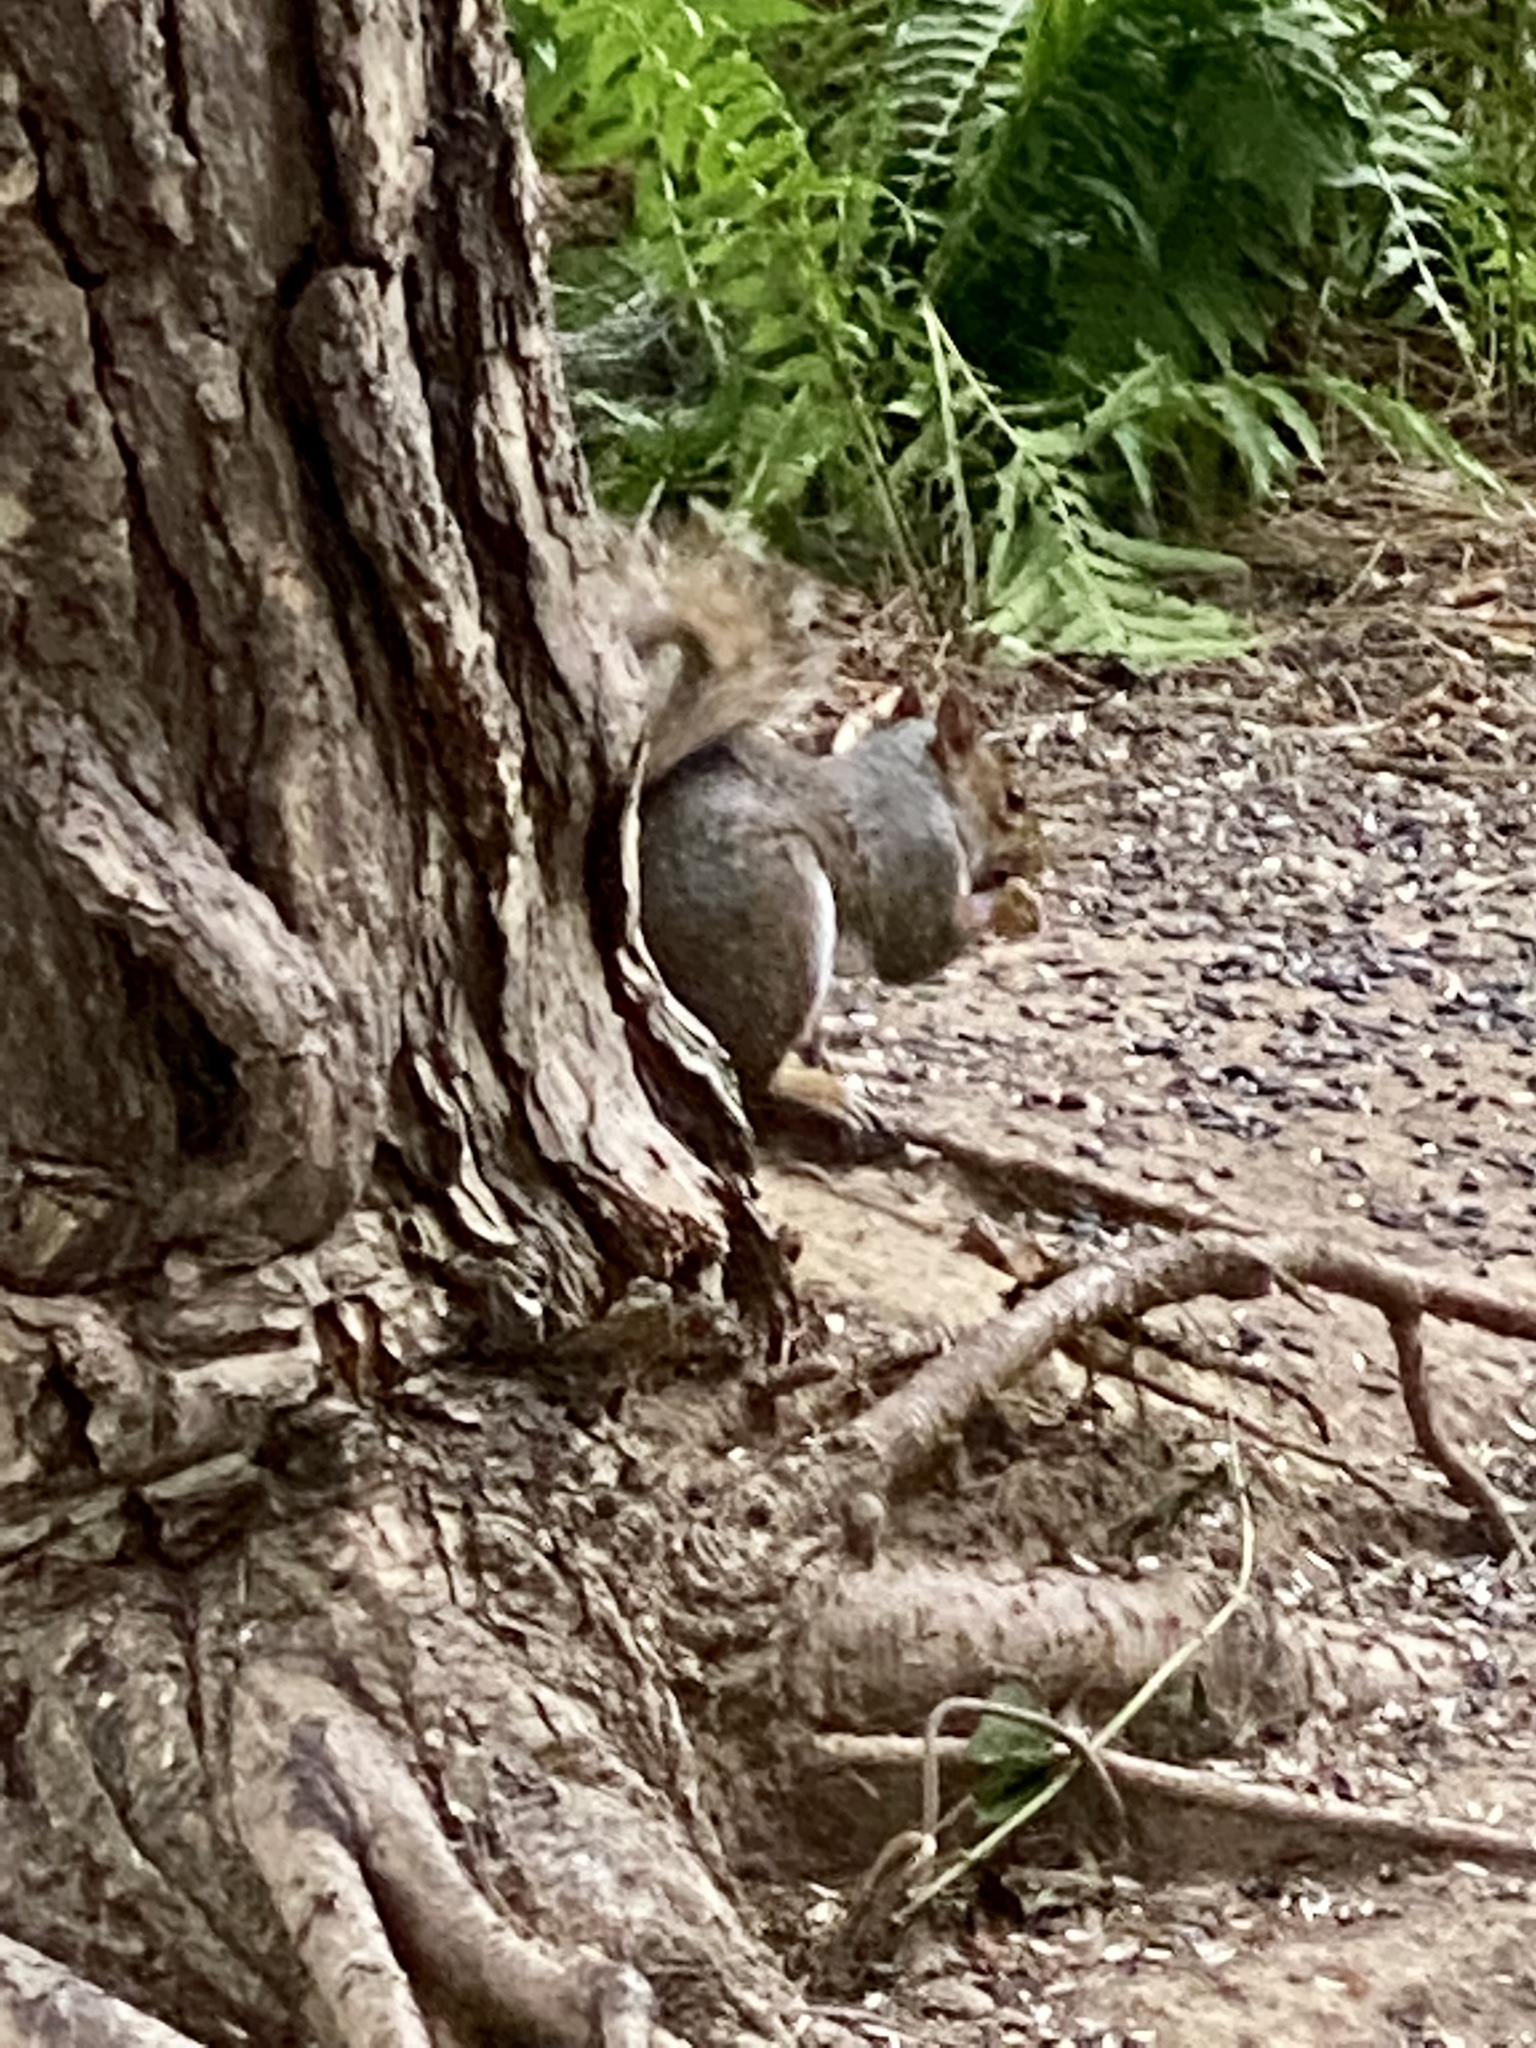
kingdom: Animalia
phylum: Chordata
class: Mammalia
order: Rodentia
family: Sciuridae
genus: Sciurus
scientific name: Sciurus carolinensis
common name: Eastern gray squirrel
